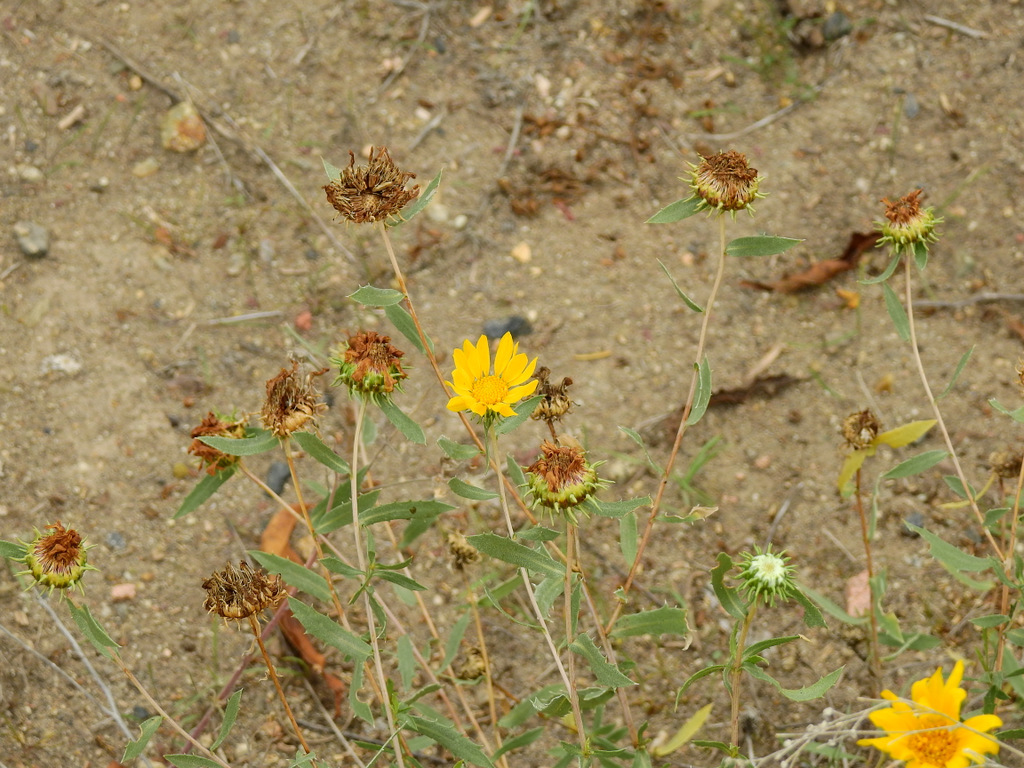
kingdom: Plantae
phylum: Tracheophyta
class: Magnoliopsida
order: Asterales
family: Asteraceae
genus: Grindelia
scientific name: Grindelia pulchella
